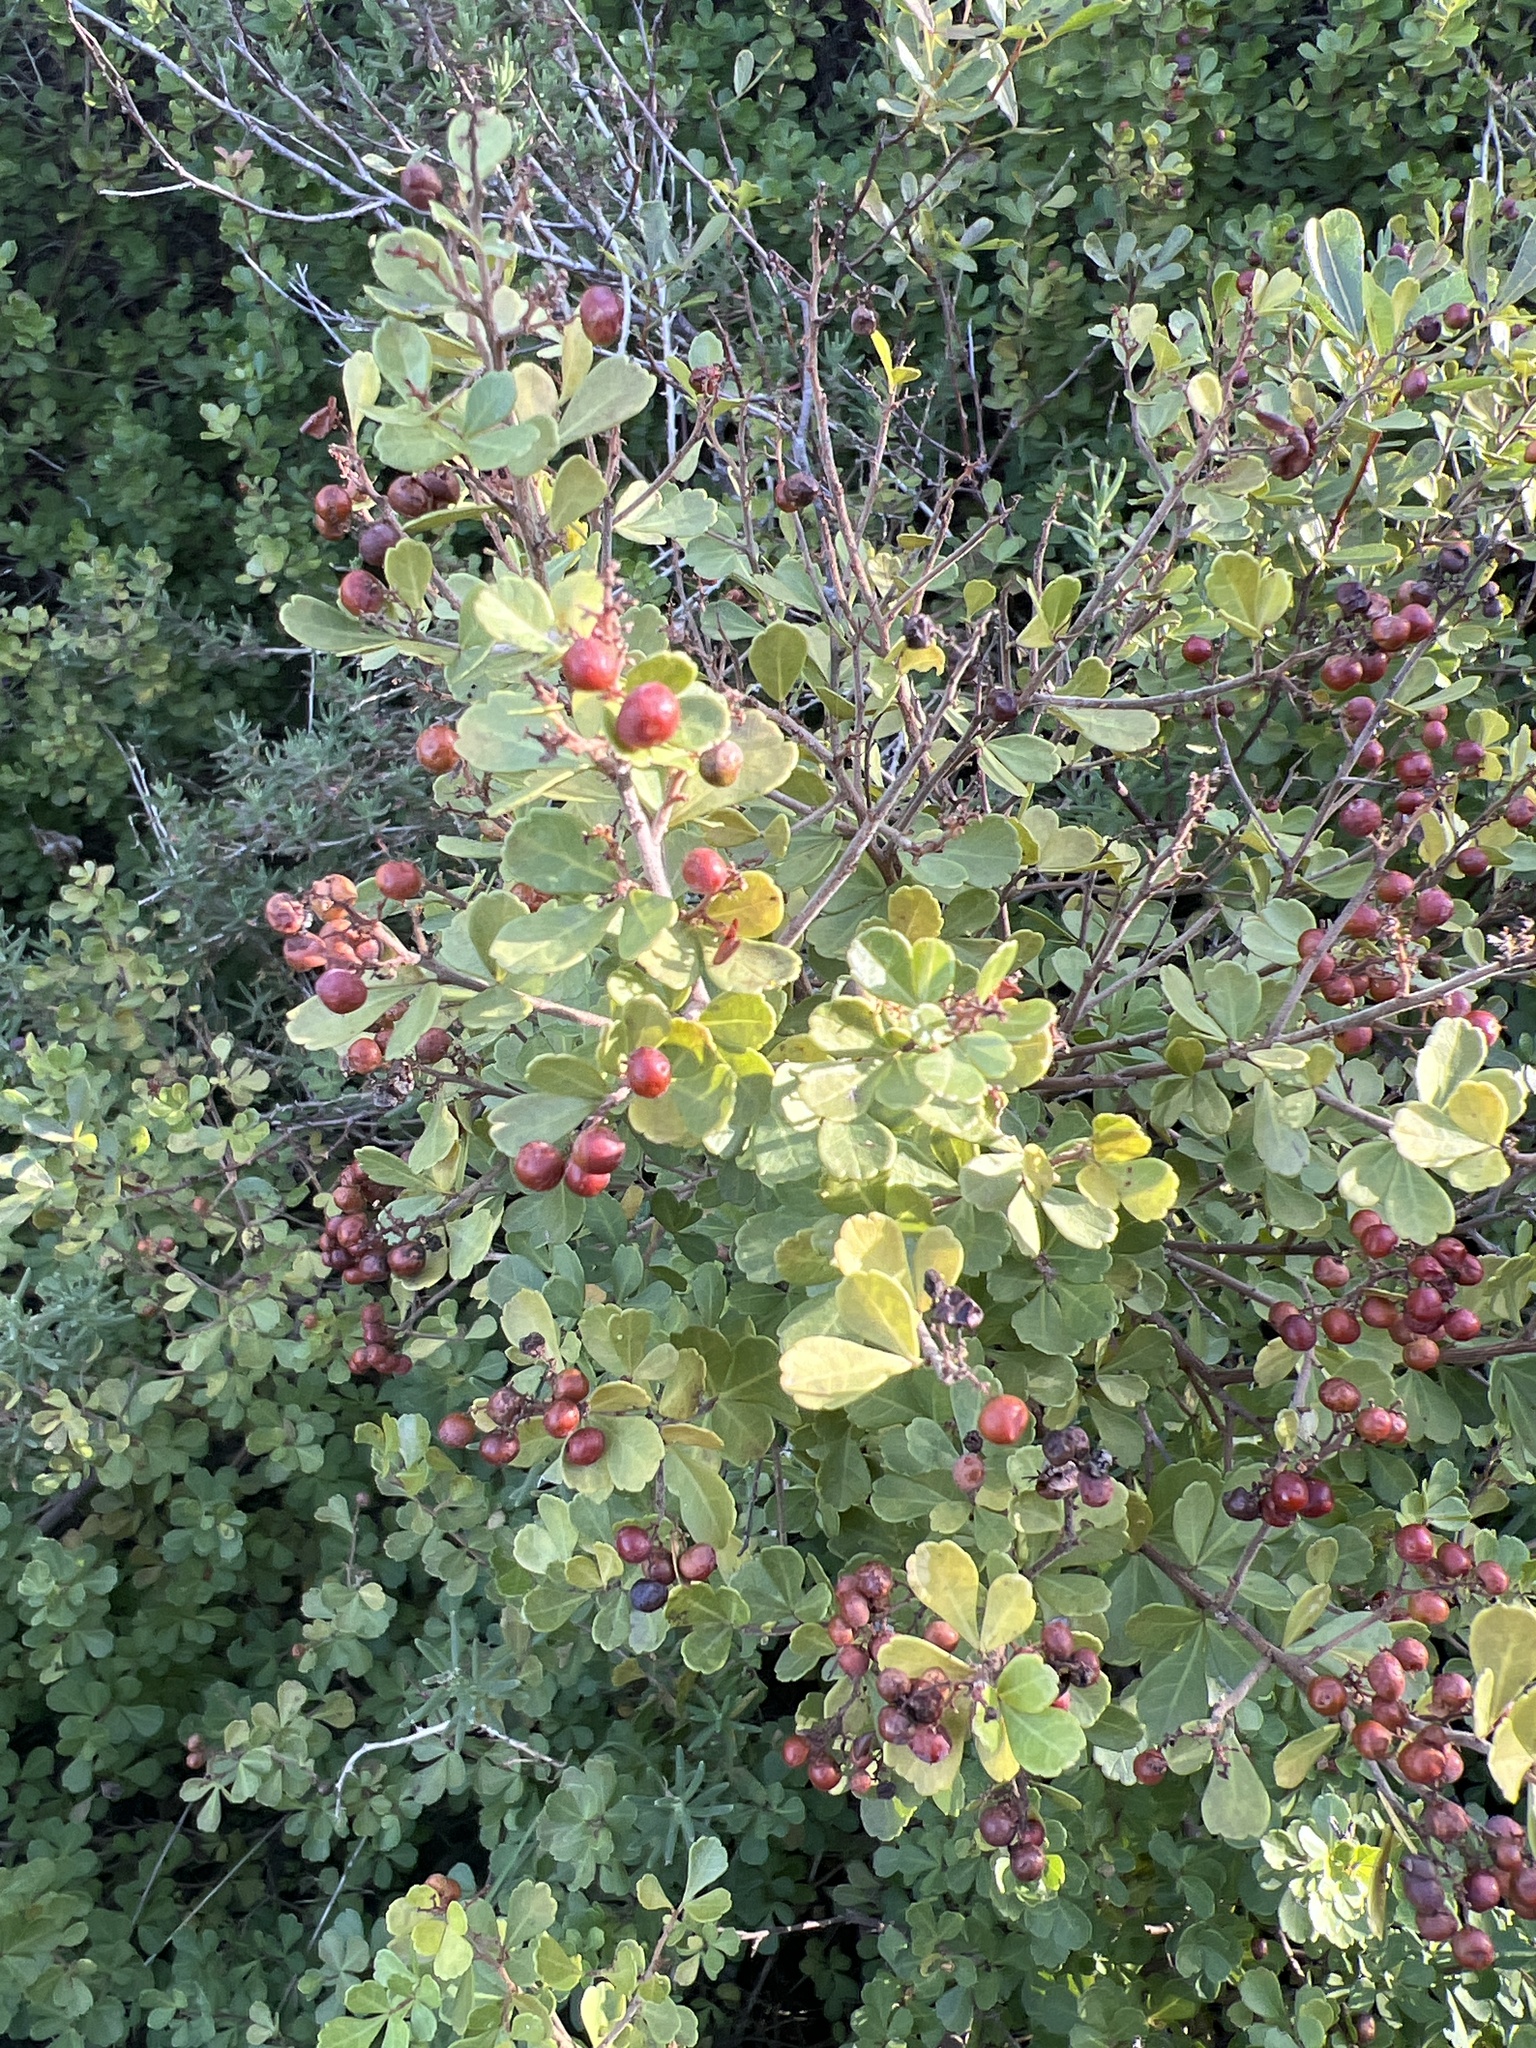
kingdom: Plantae
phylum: Tracheophyta
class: Magnoliopsida
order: Sapindales
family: Anacardiaceae
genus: Searsia
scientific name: Searsia crenata
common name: Crowberry
